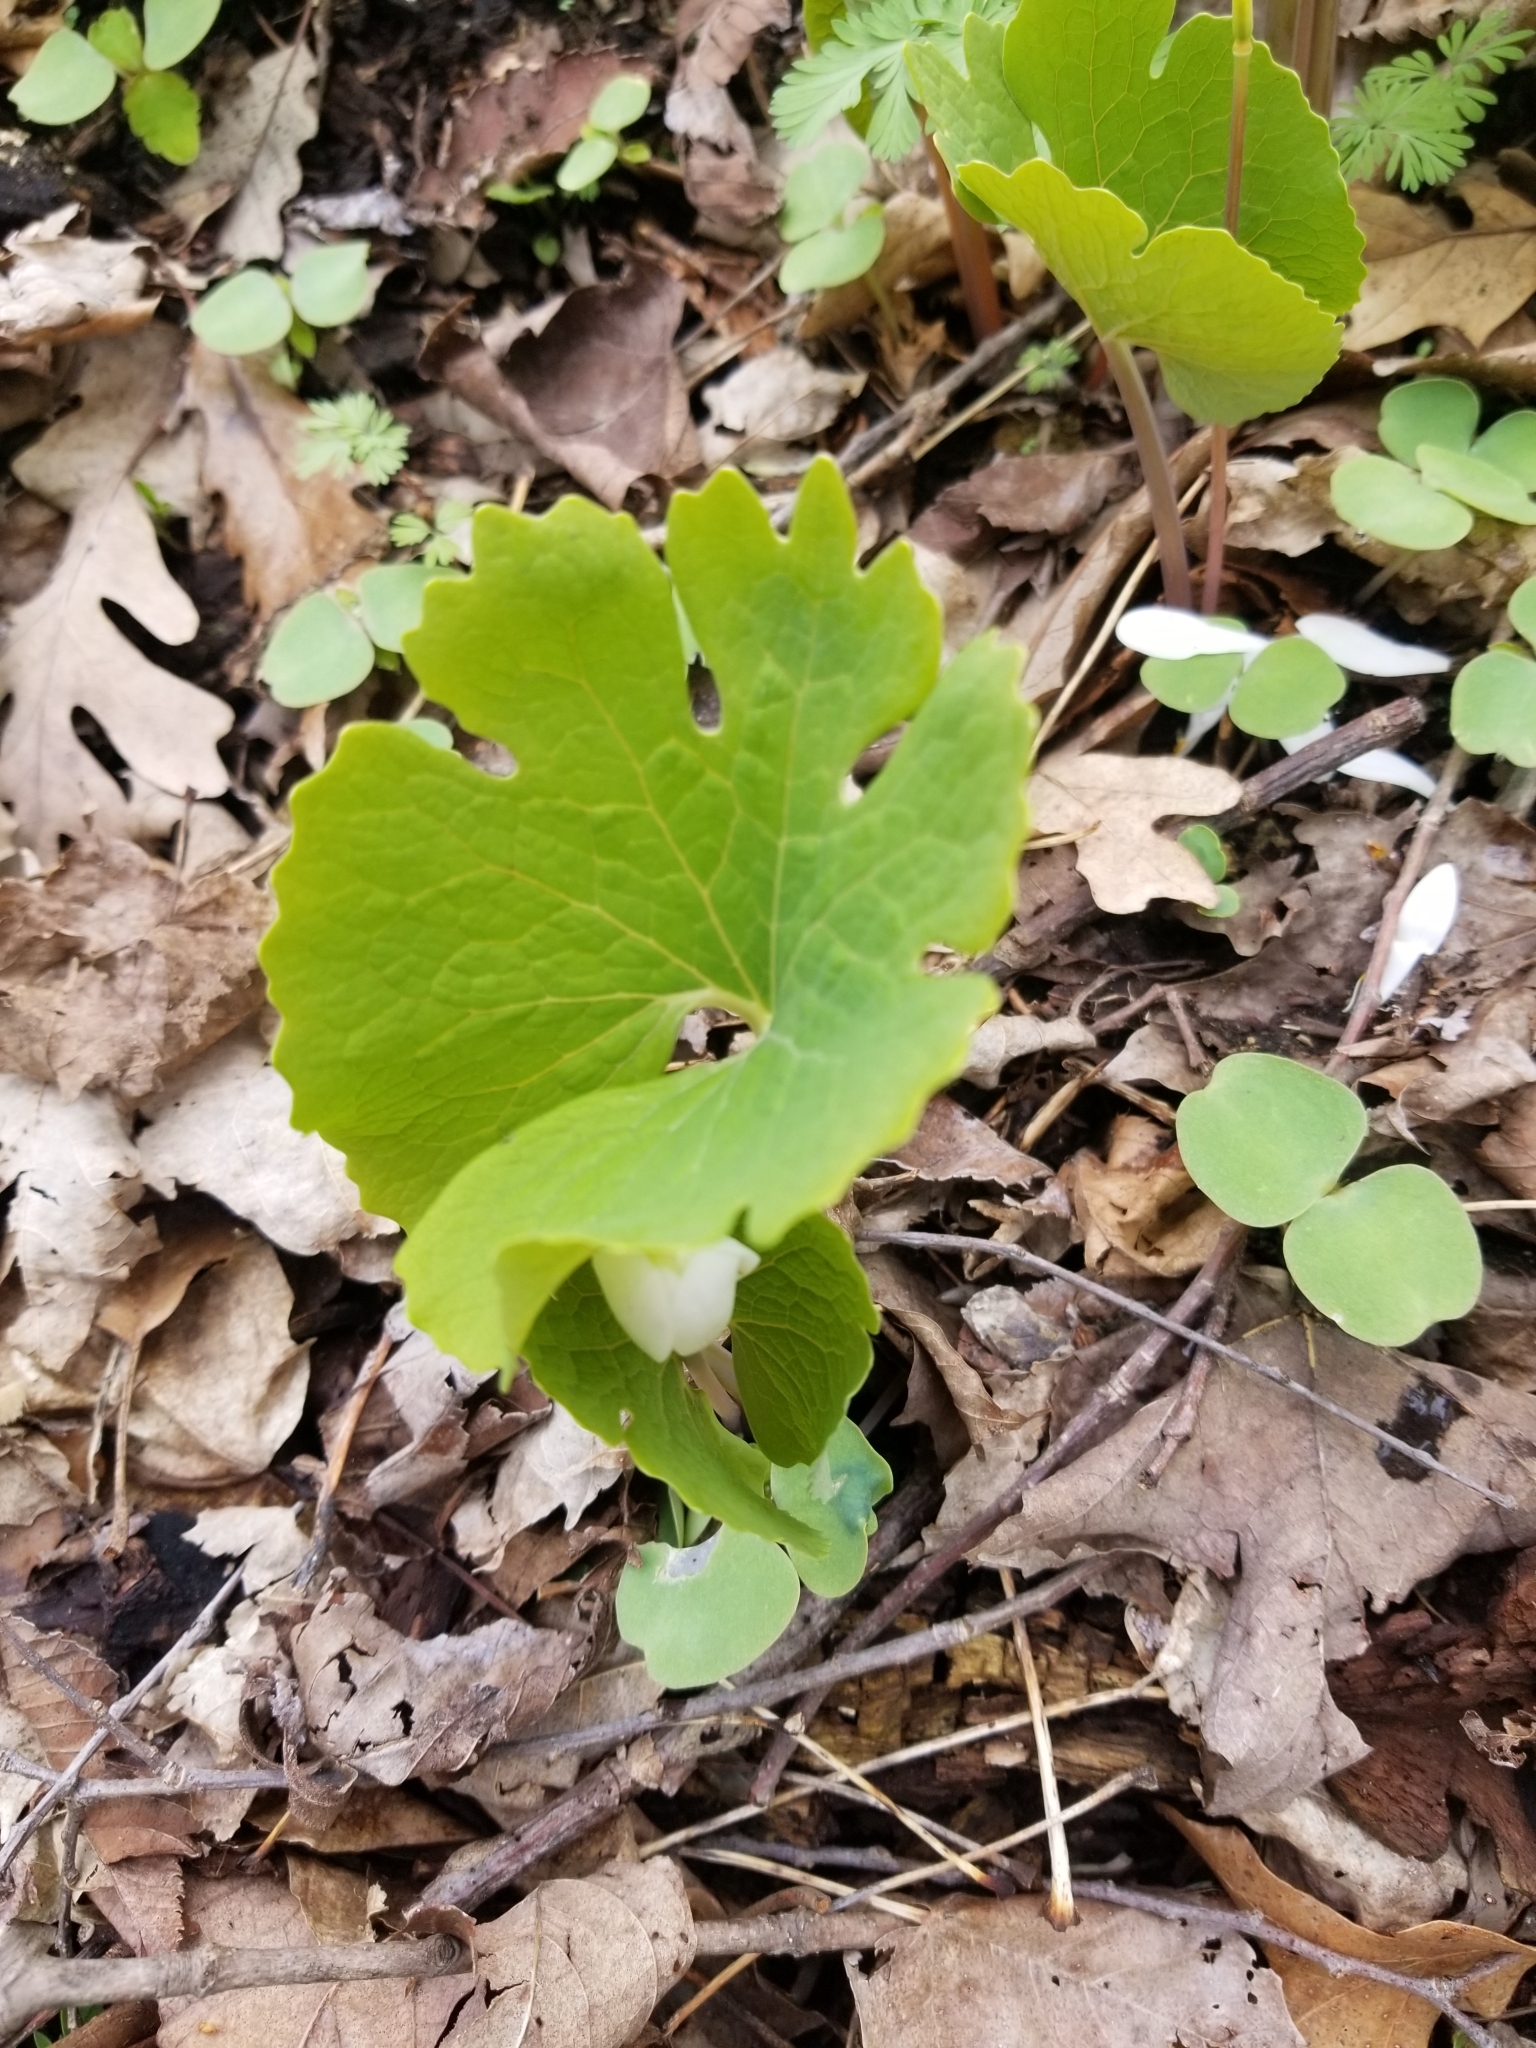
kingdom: Plantae
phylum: Tracheophyta
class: Magnoliopsida
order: Ranunculales
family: Papaveraceae
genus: Sanguinaria
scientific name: Sanguinaria canadensis
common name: Bloodroot
